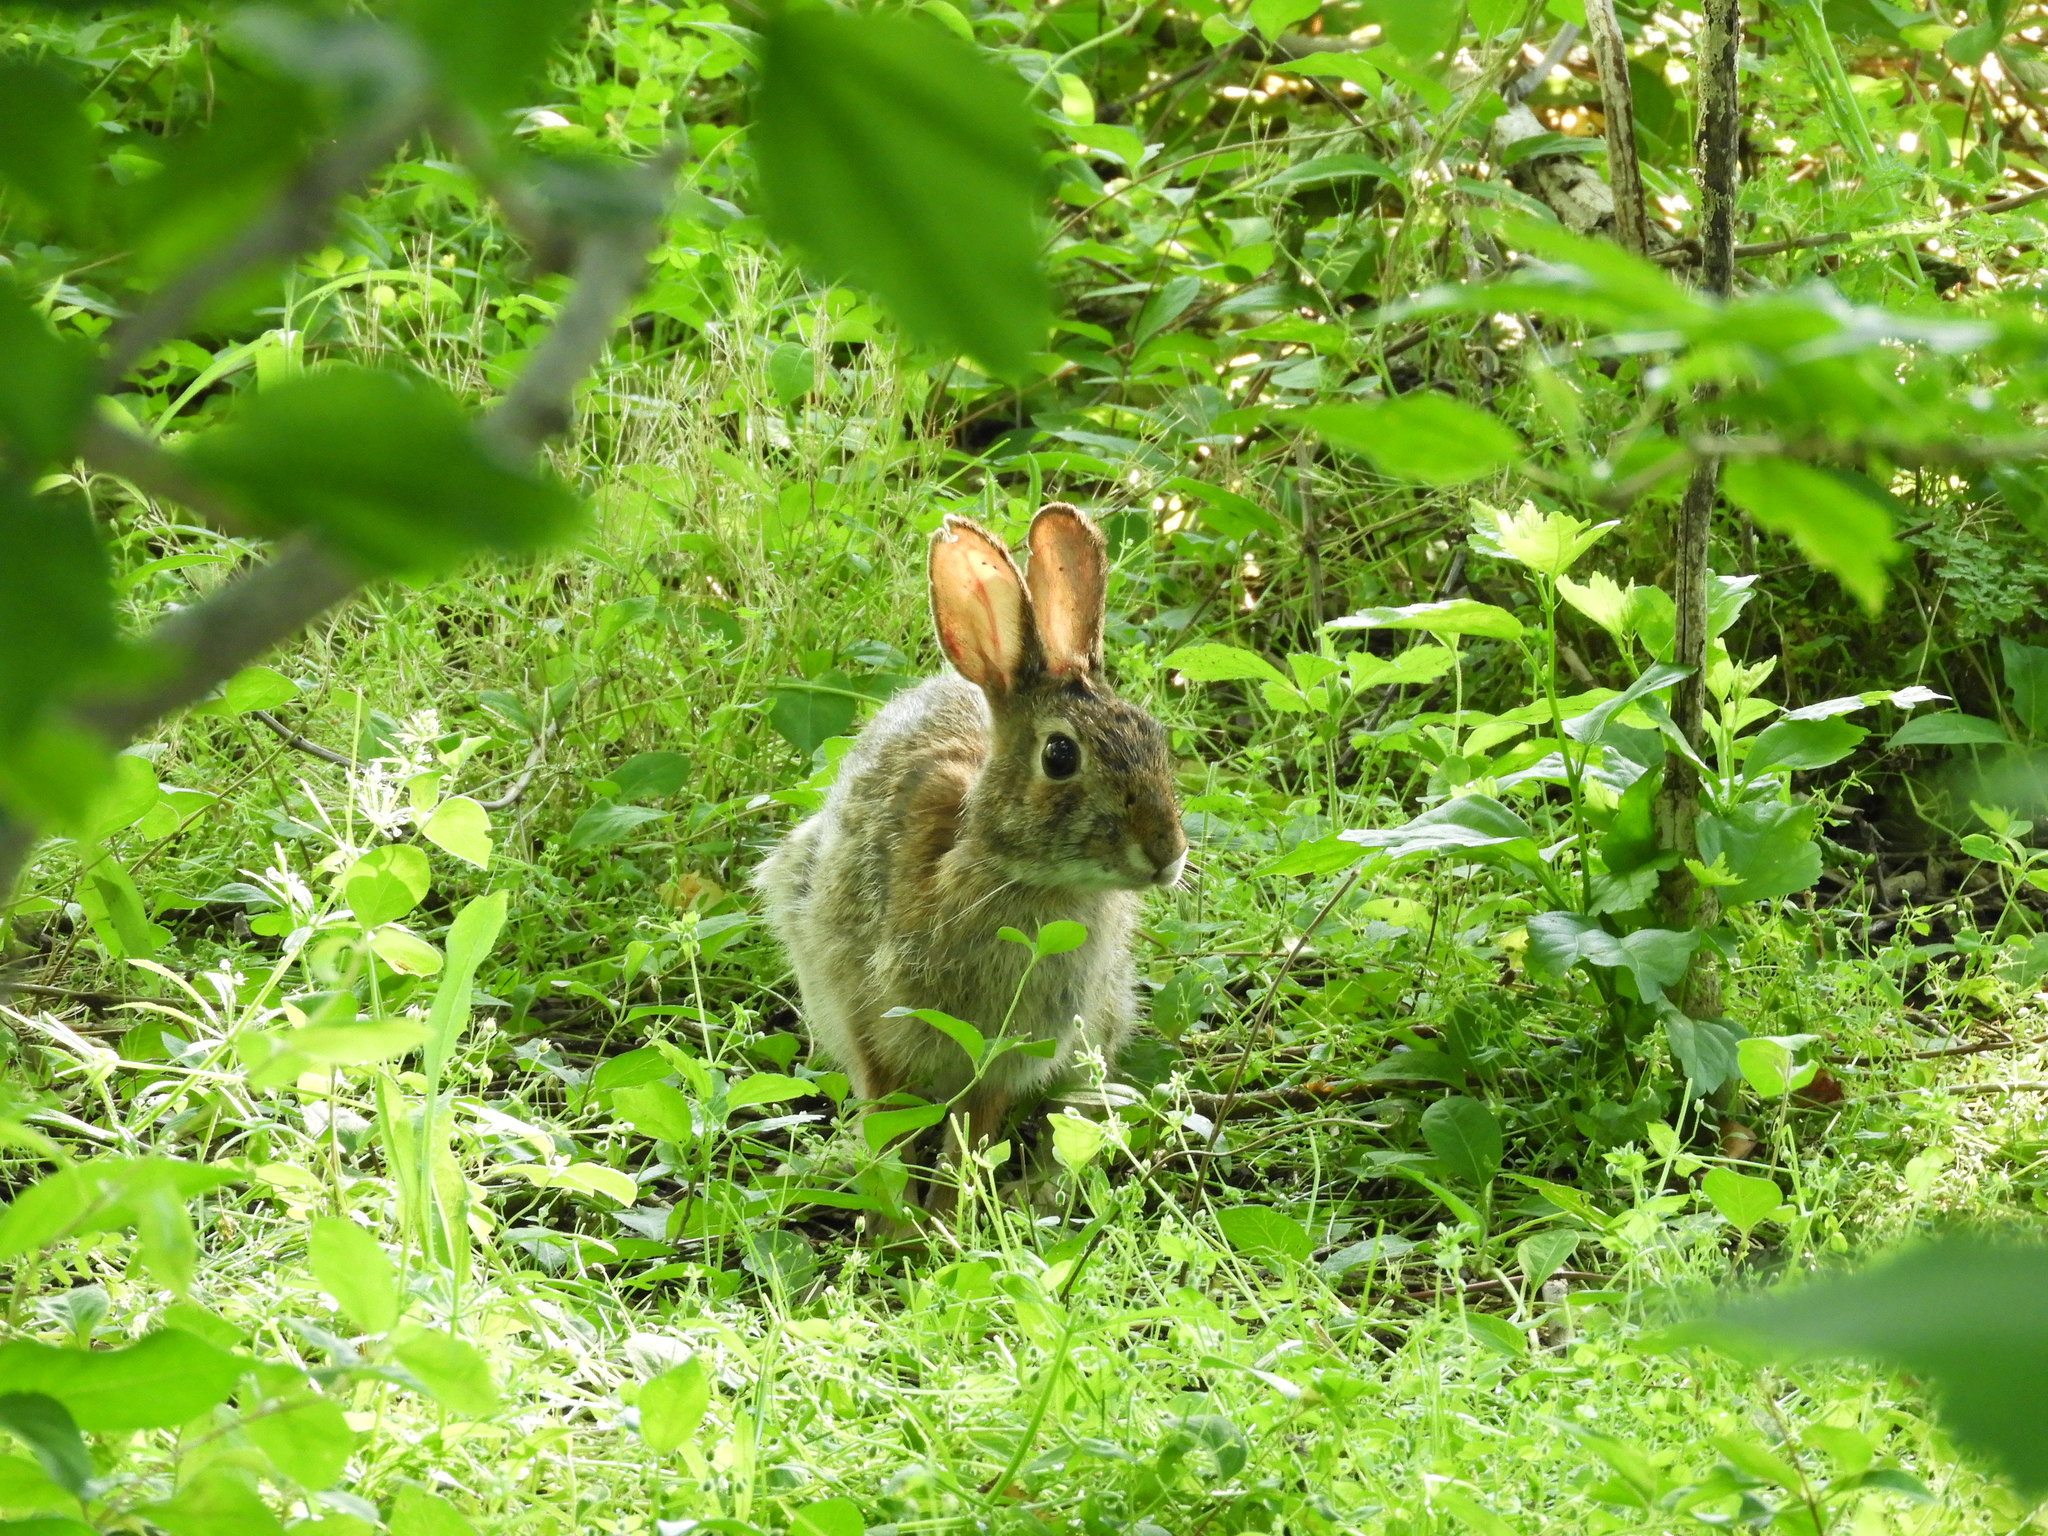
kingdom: Animalia
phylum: Chordata
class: Mammalia
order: Lagomorpha
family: Leporidae
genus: Sylvilagus
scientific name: Sylvilagus floridanus
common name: Eastern cottontail
